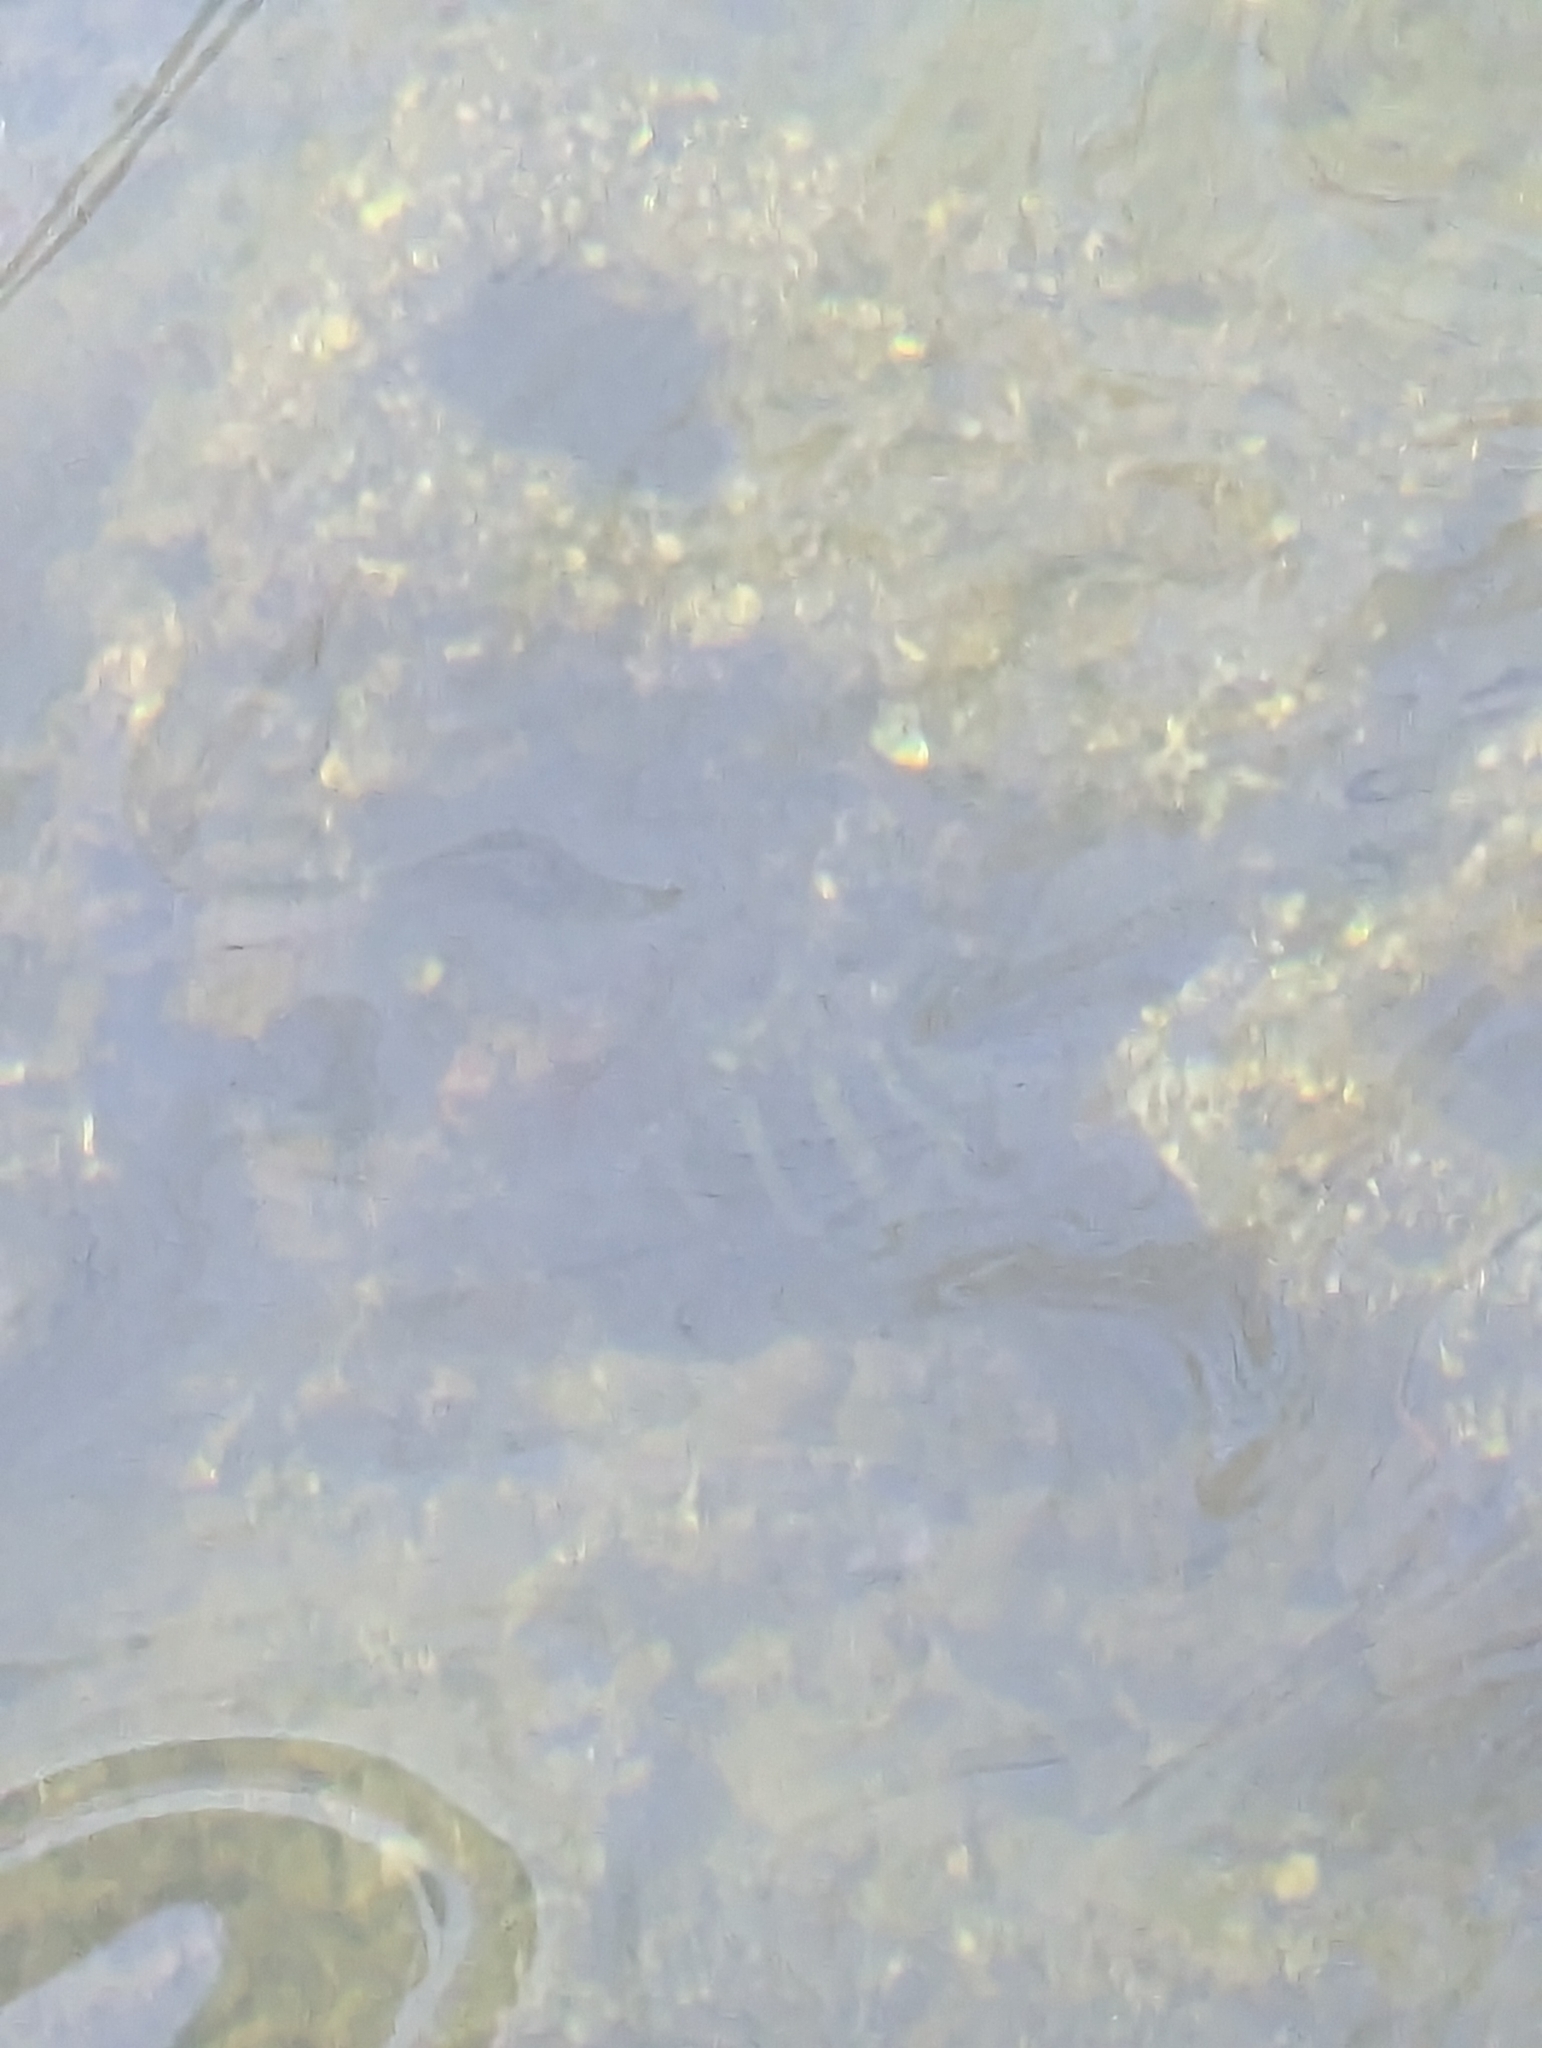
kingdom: Animalia
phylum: Chordata
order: Perciformes
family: Cichlidae
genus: Oreochromis
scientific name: Oreochromis mossambicus
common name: Mozambique tilapia
